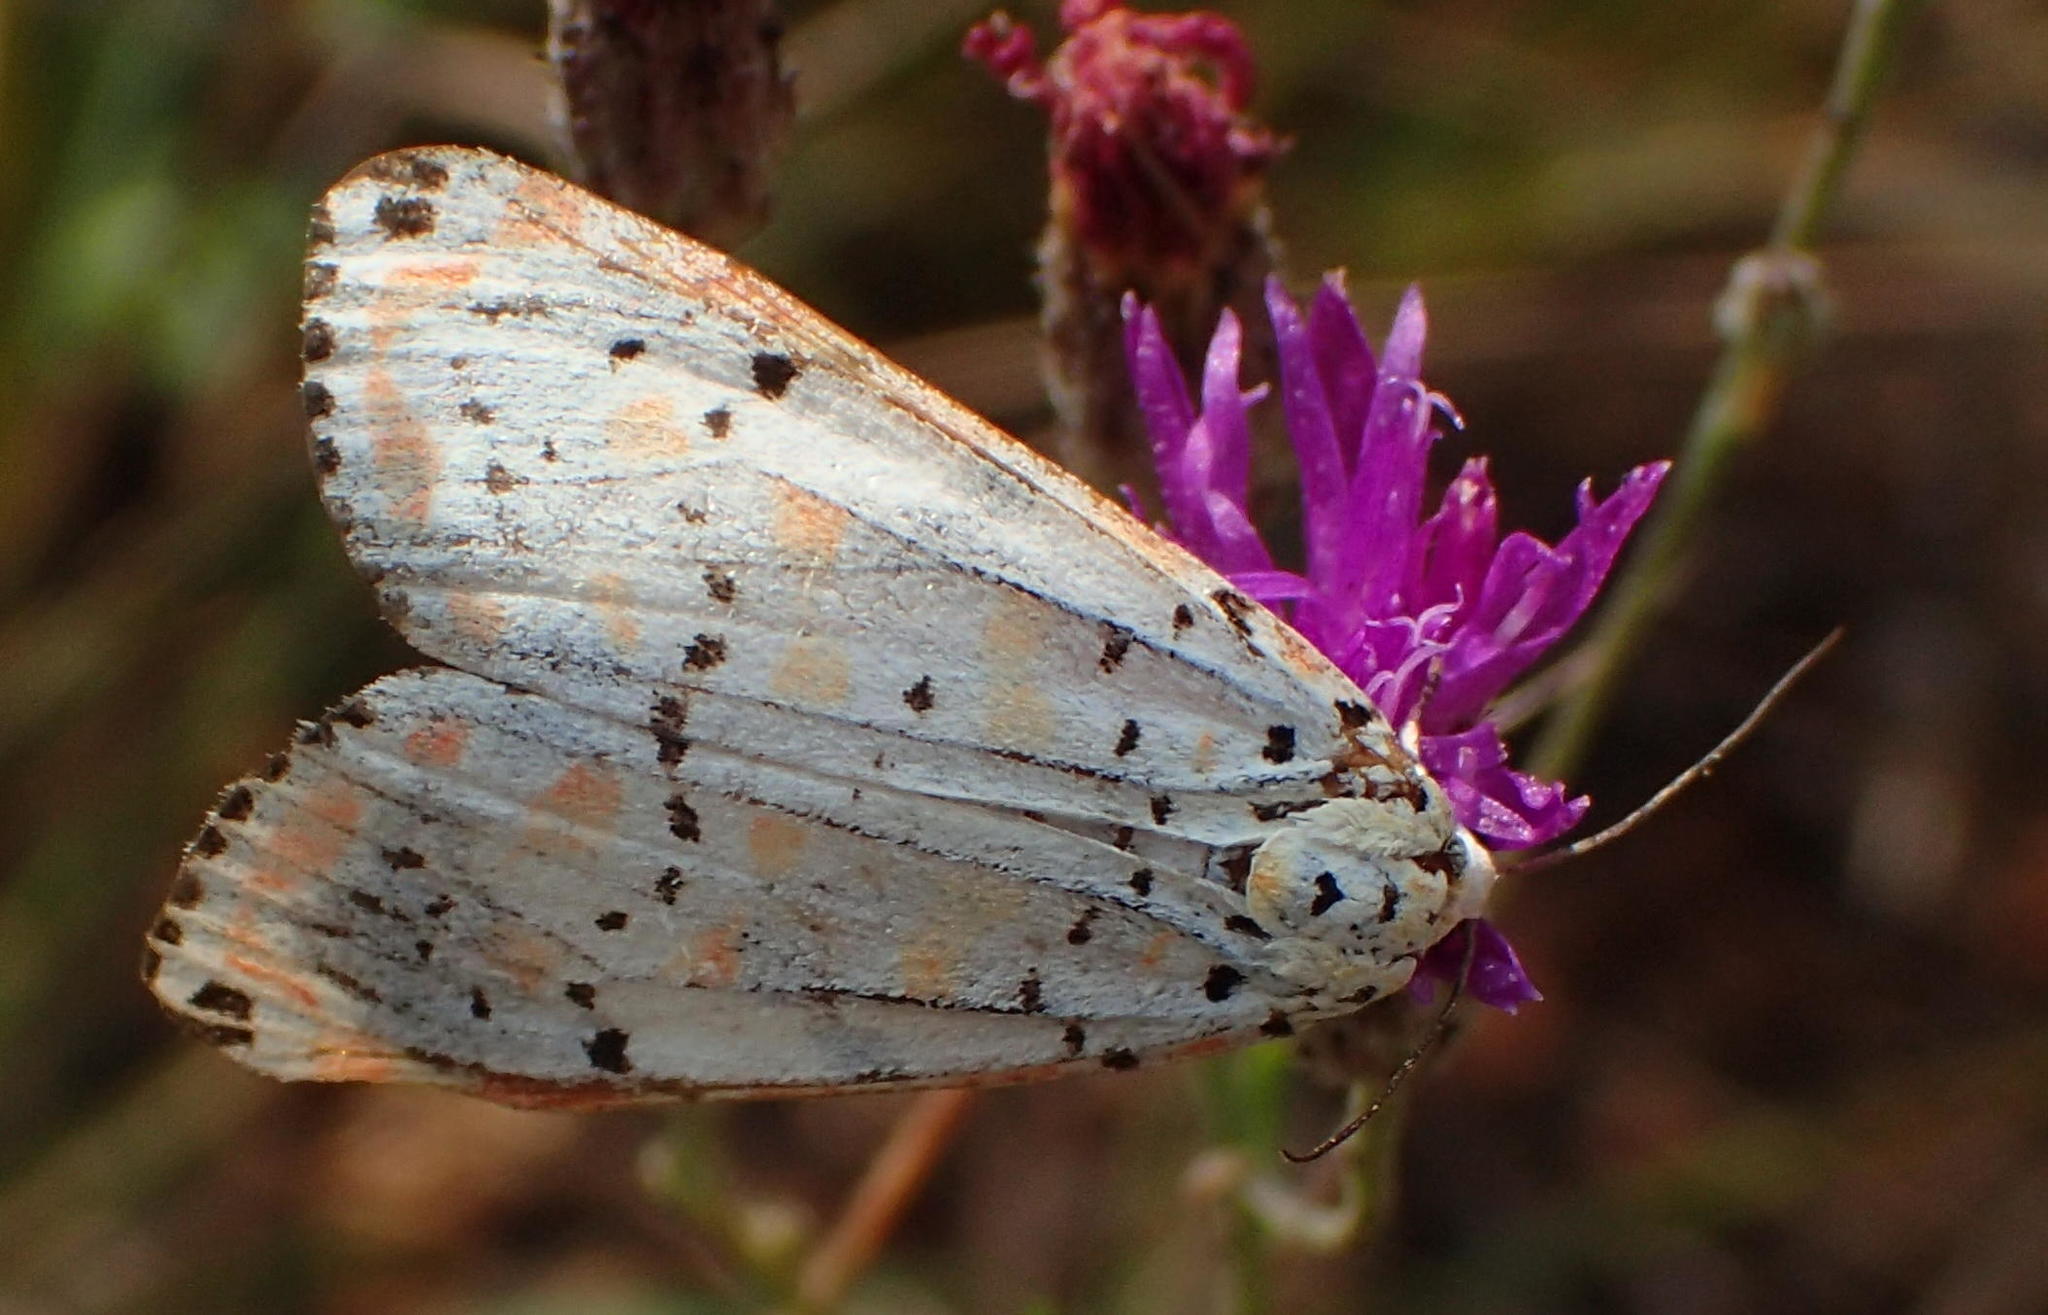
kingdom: Animalia
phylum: Arthropoda
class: Insecta
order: Lepidoptera
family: Erebidae
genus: Utetheisa
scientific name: Utetheisa pulchella
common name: Crimson speckled
